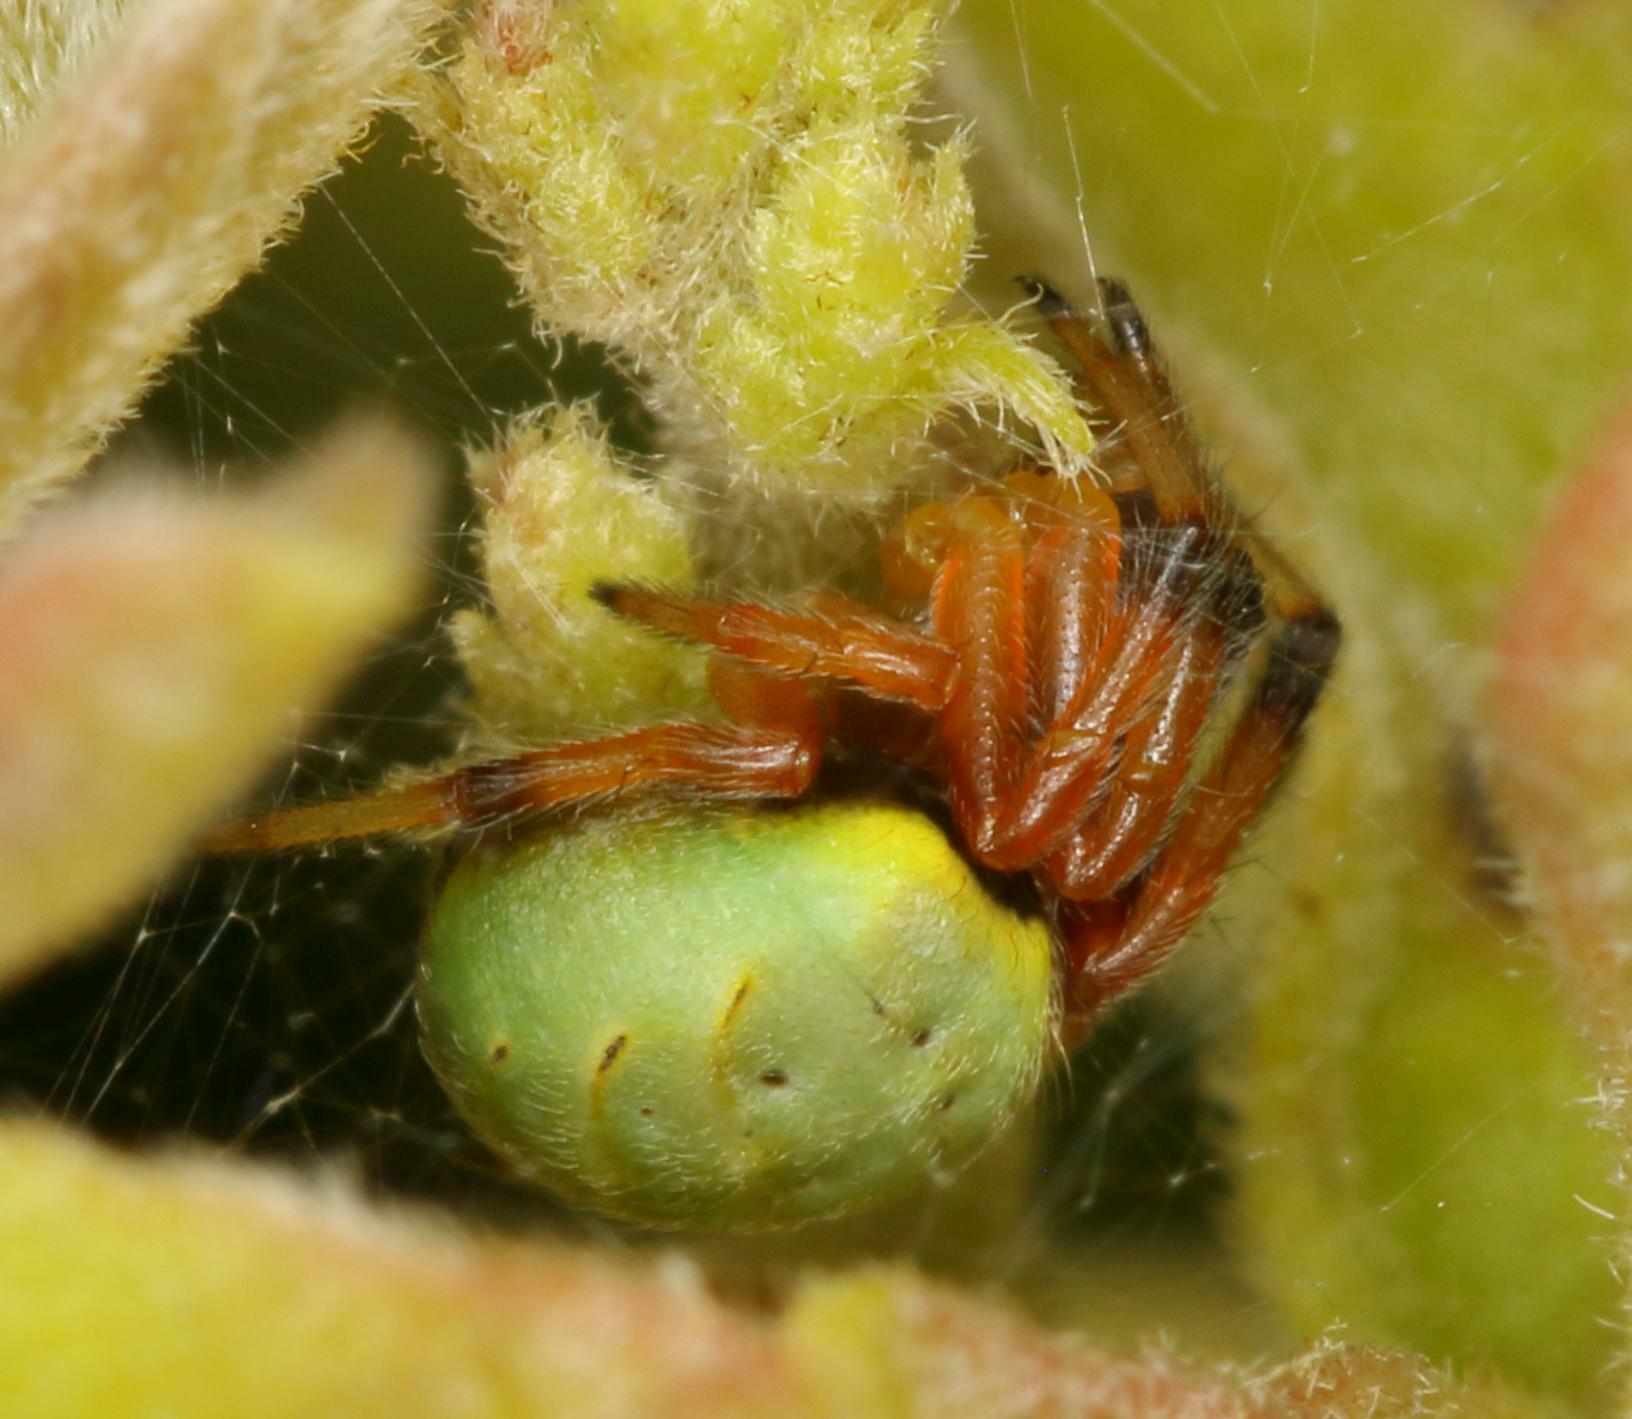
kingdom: Animalia
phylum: Arthropoda
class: Arachnida
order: Araneae
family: Araneidae
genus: Araneus
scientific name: Araneus apricus
